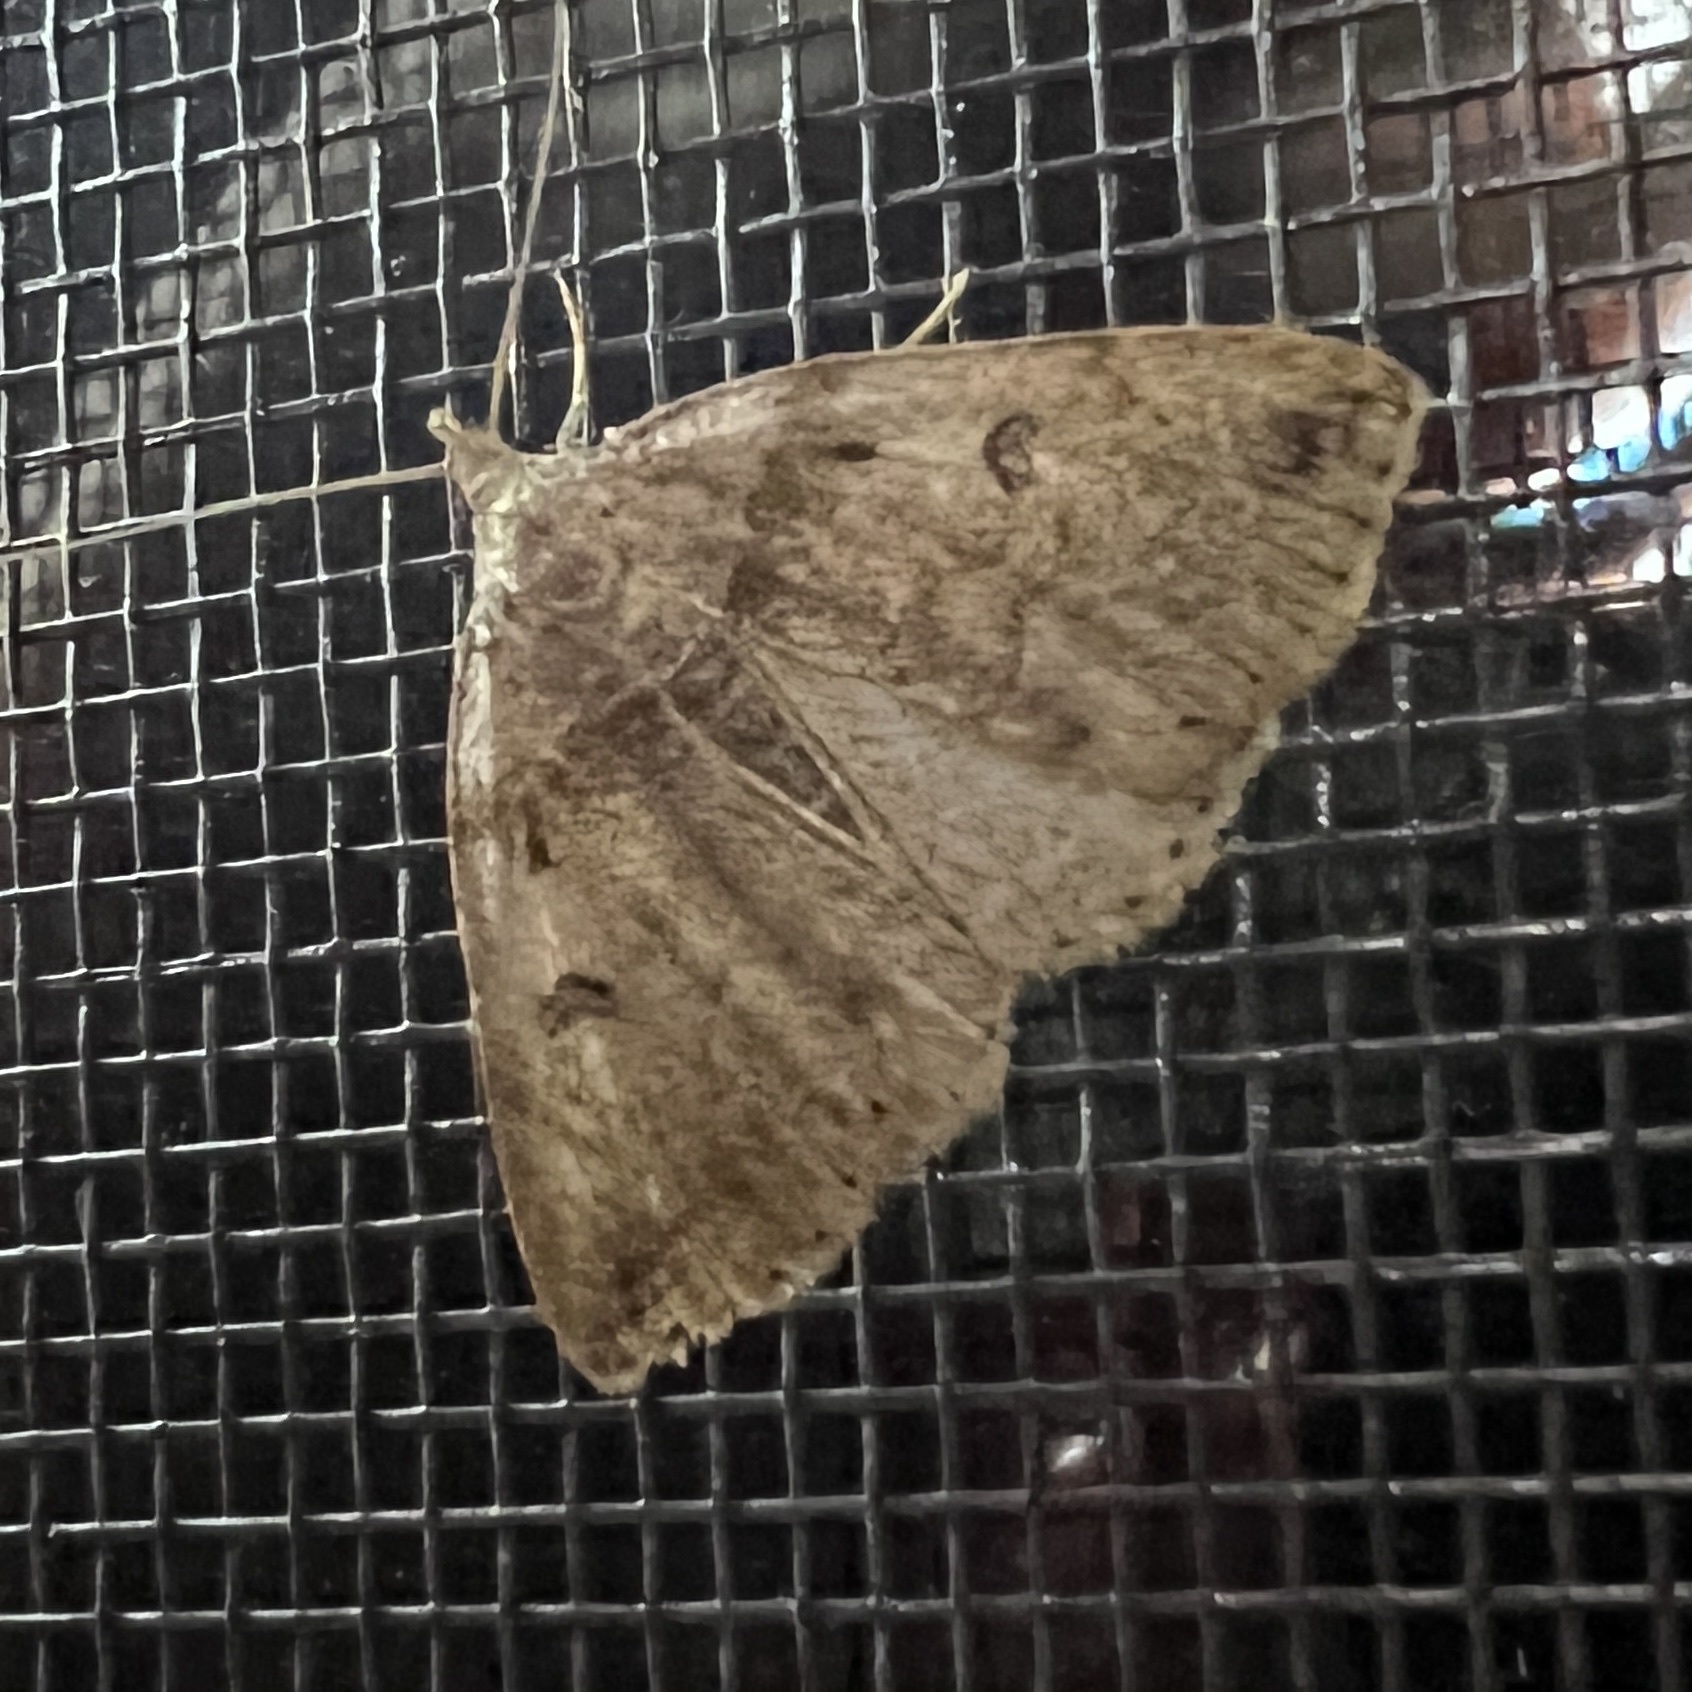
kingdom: Animalia
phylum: Arthropoda
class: Insecta
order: Lepidoptera
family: Erebidae
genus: Zanclognatha
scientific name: Zanclognatha laevigata
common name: Variable fan-foot
